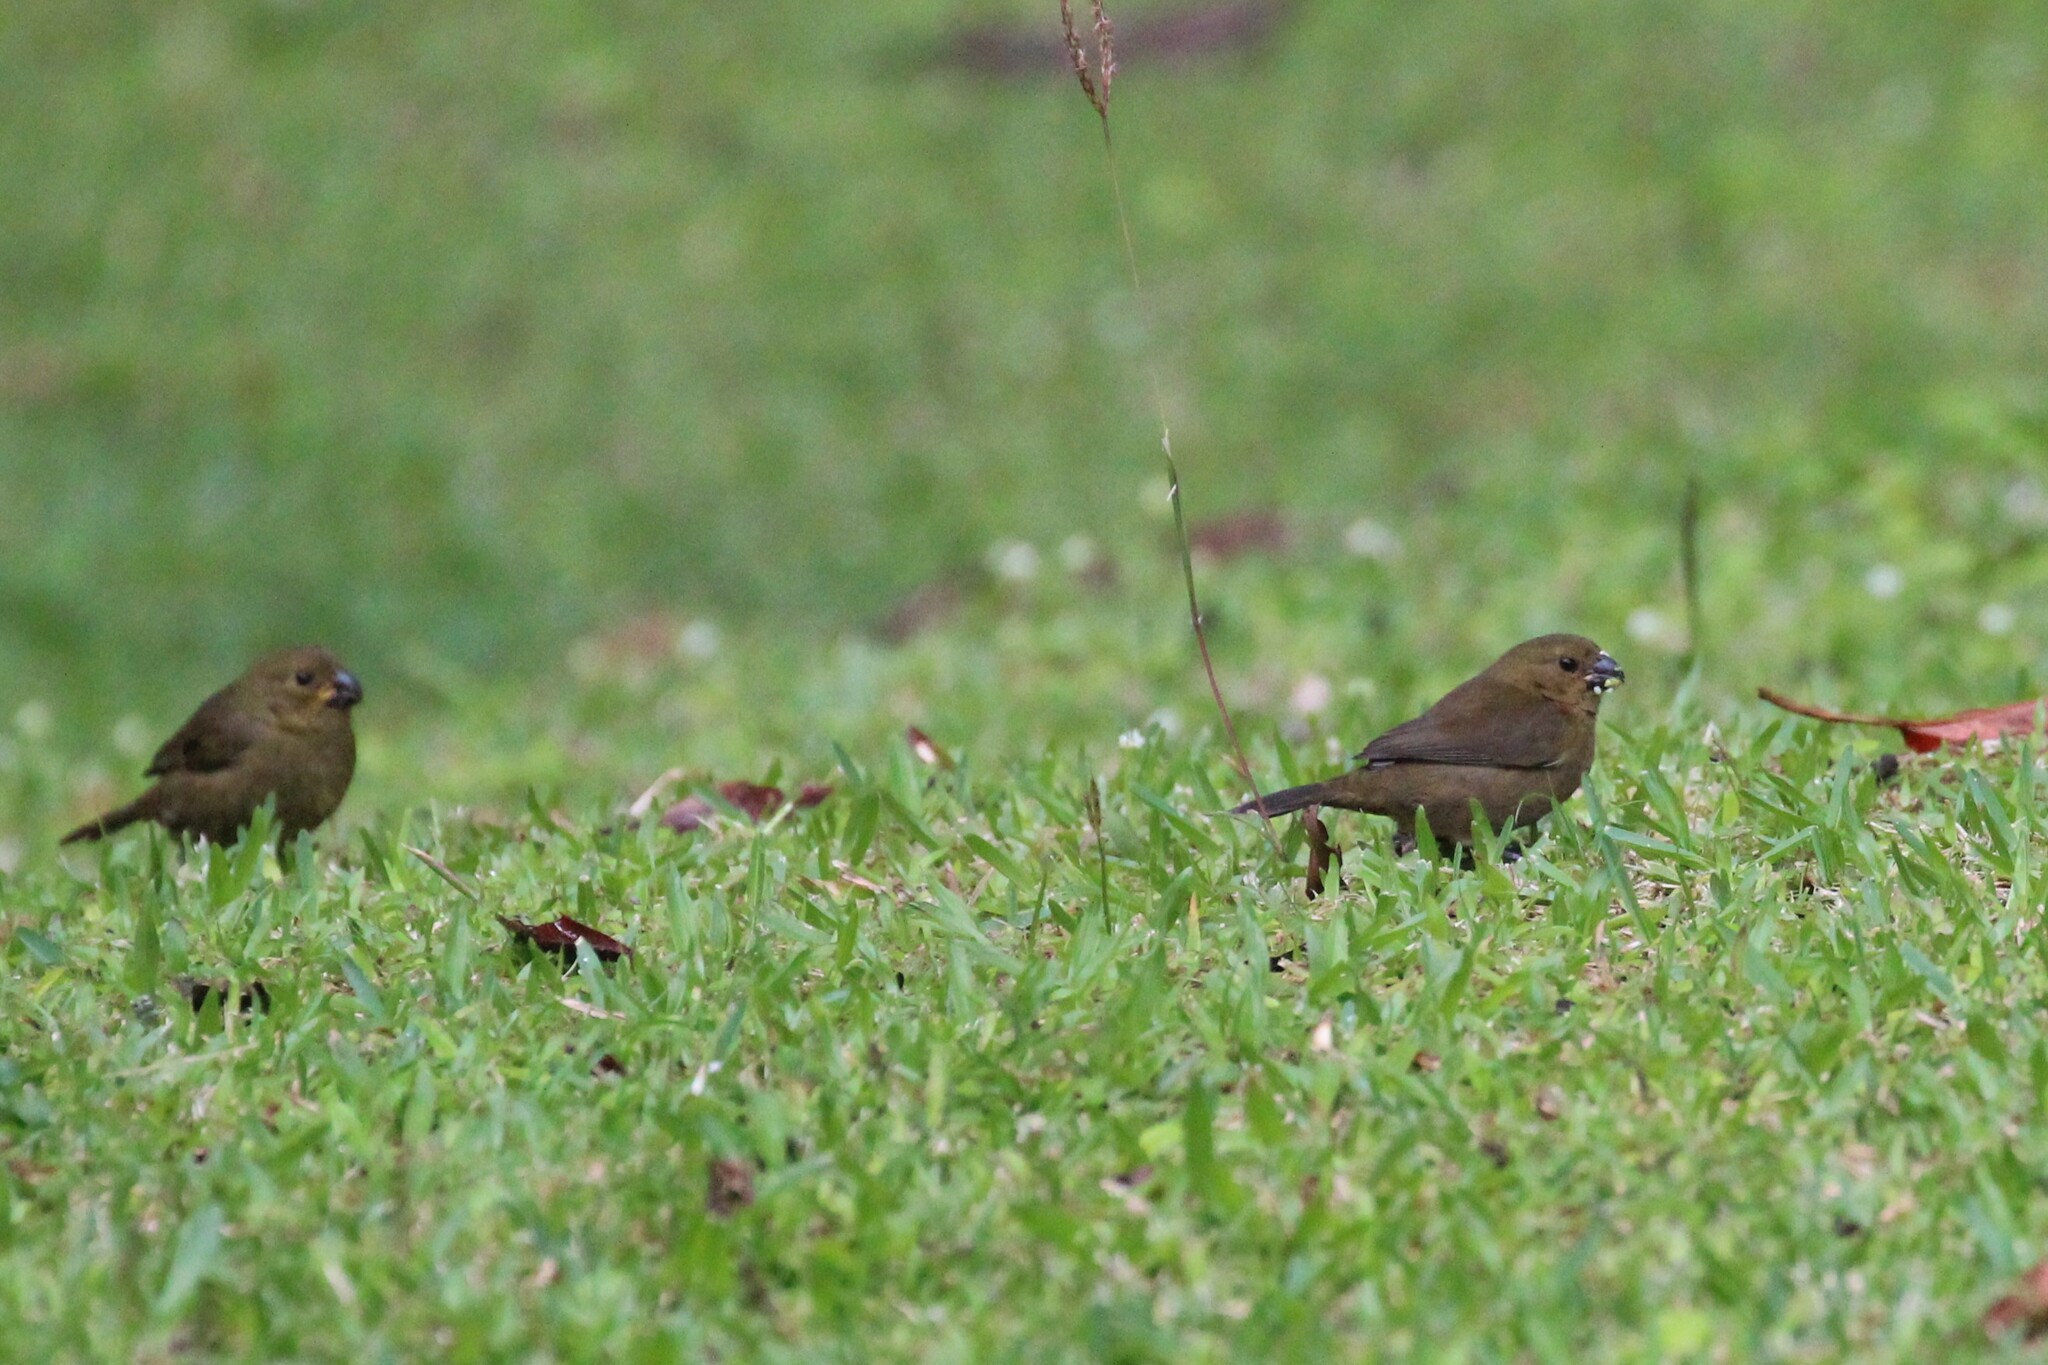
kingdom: Animalia
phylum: Chordata
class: Aves
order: Passeriformes
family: Thraupidae
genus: Sporophila
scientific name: Sporophila corvina
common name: Variable seedeater
